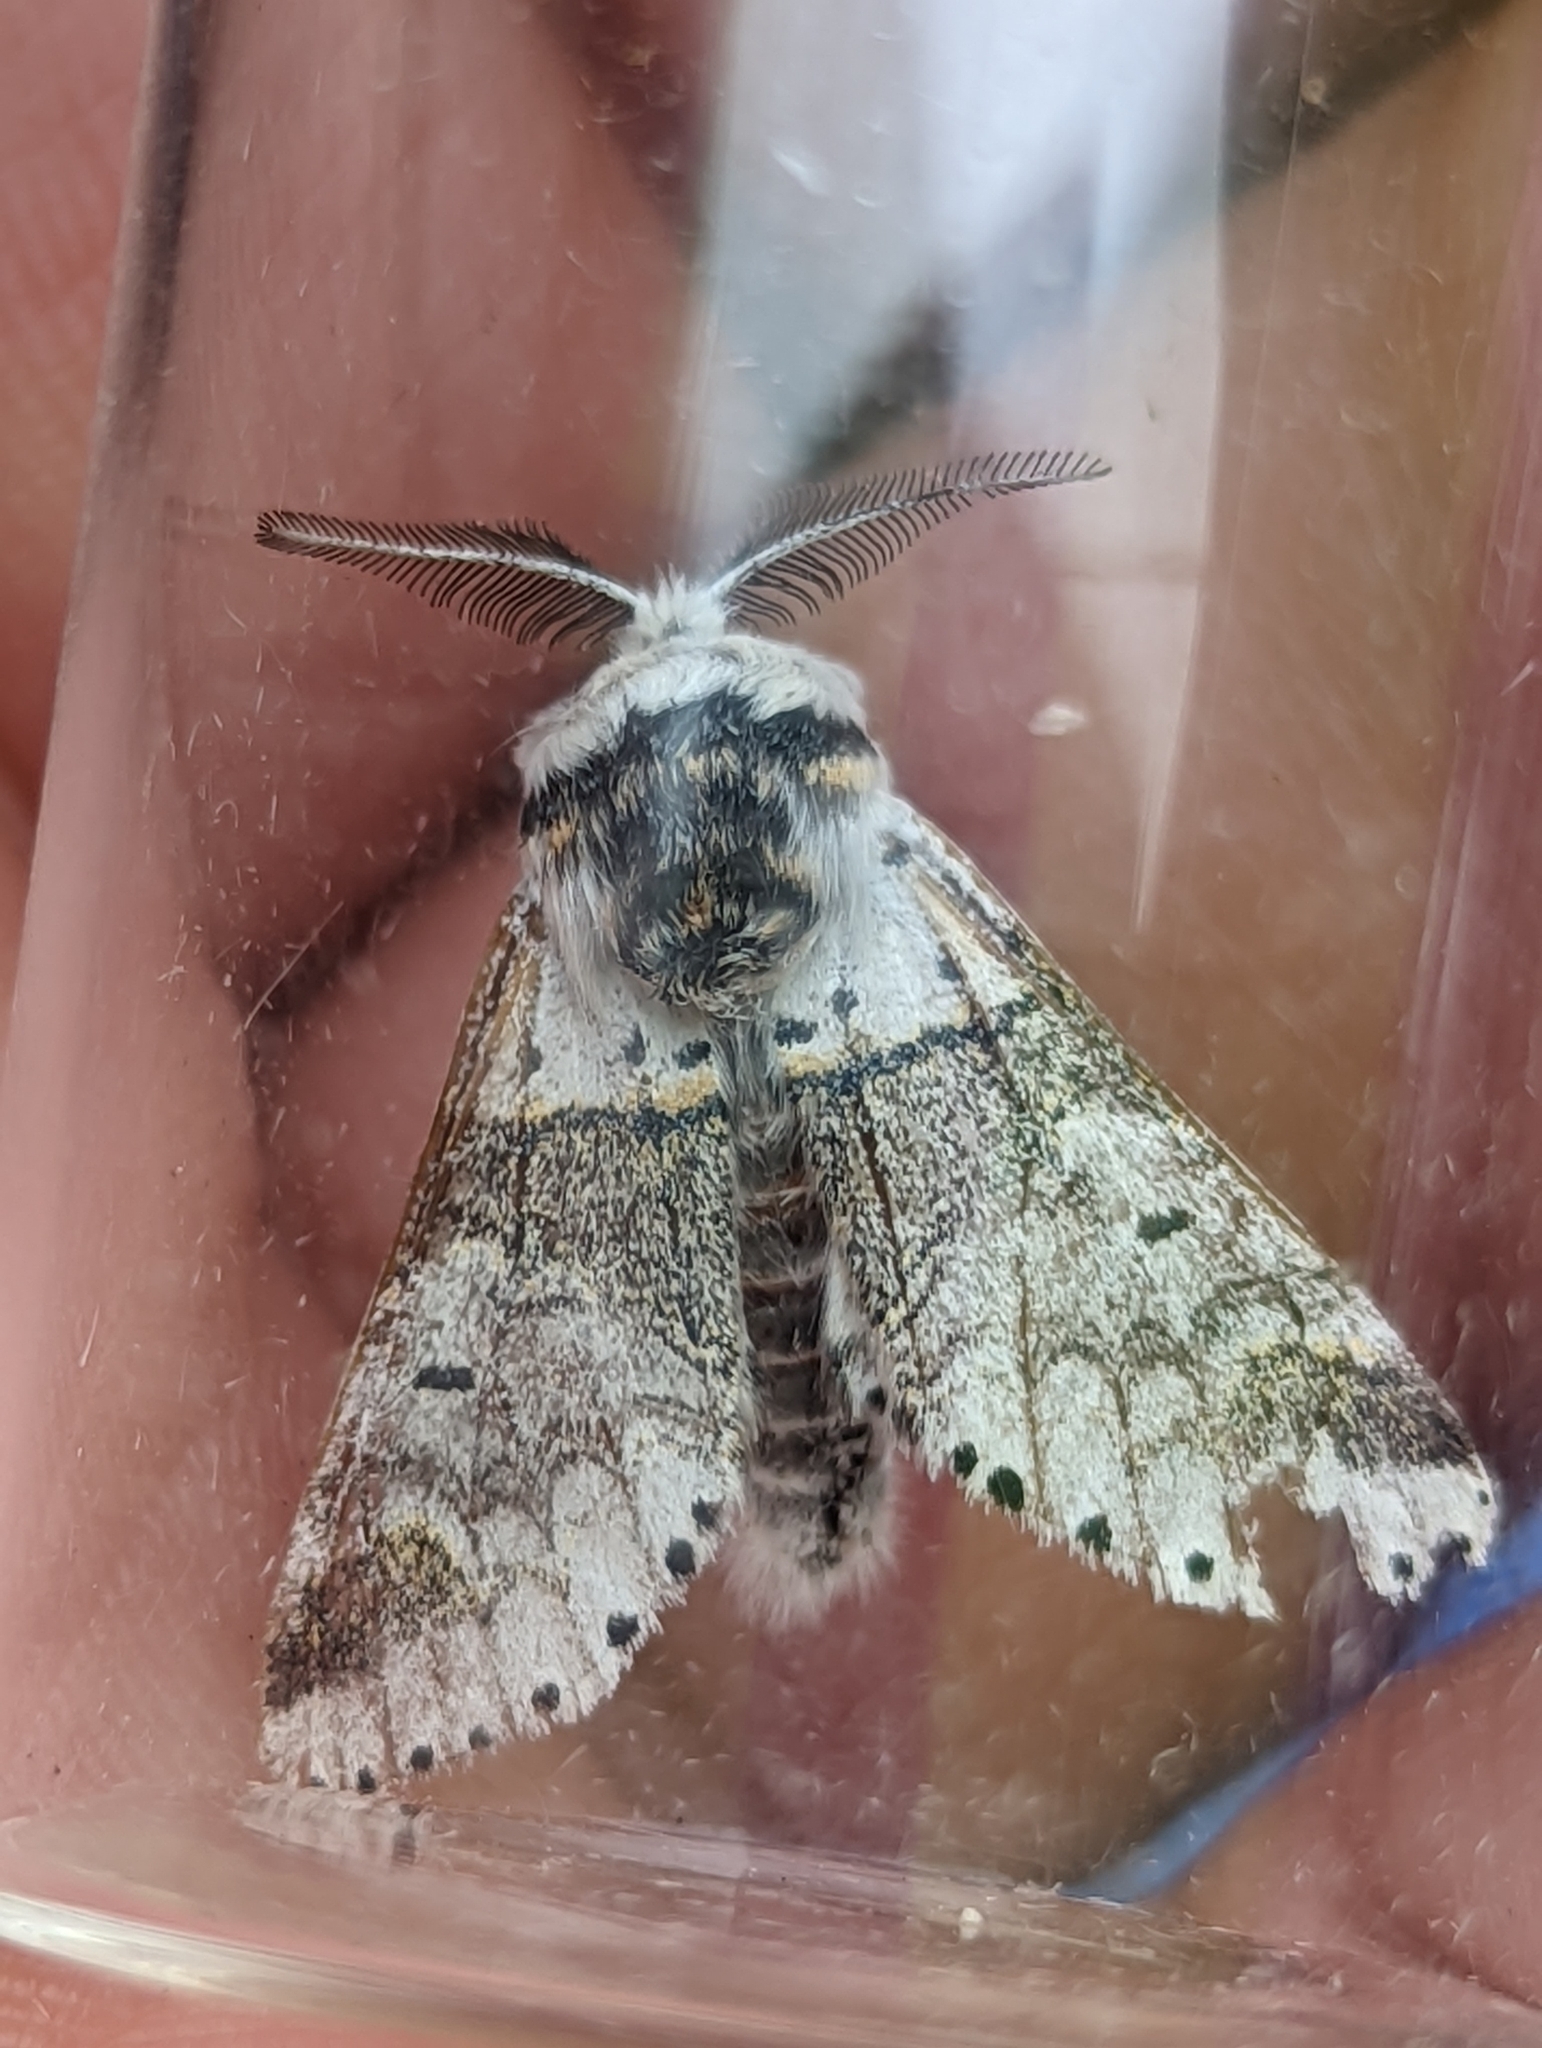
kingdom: Animalia
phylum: Arthropoda
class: Insecta
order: Lepidoptera
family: Notodontidae
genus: Furcula
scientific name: Furcula furcula
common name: Sallow kitten
